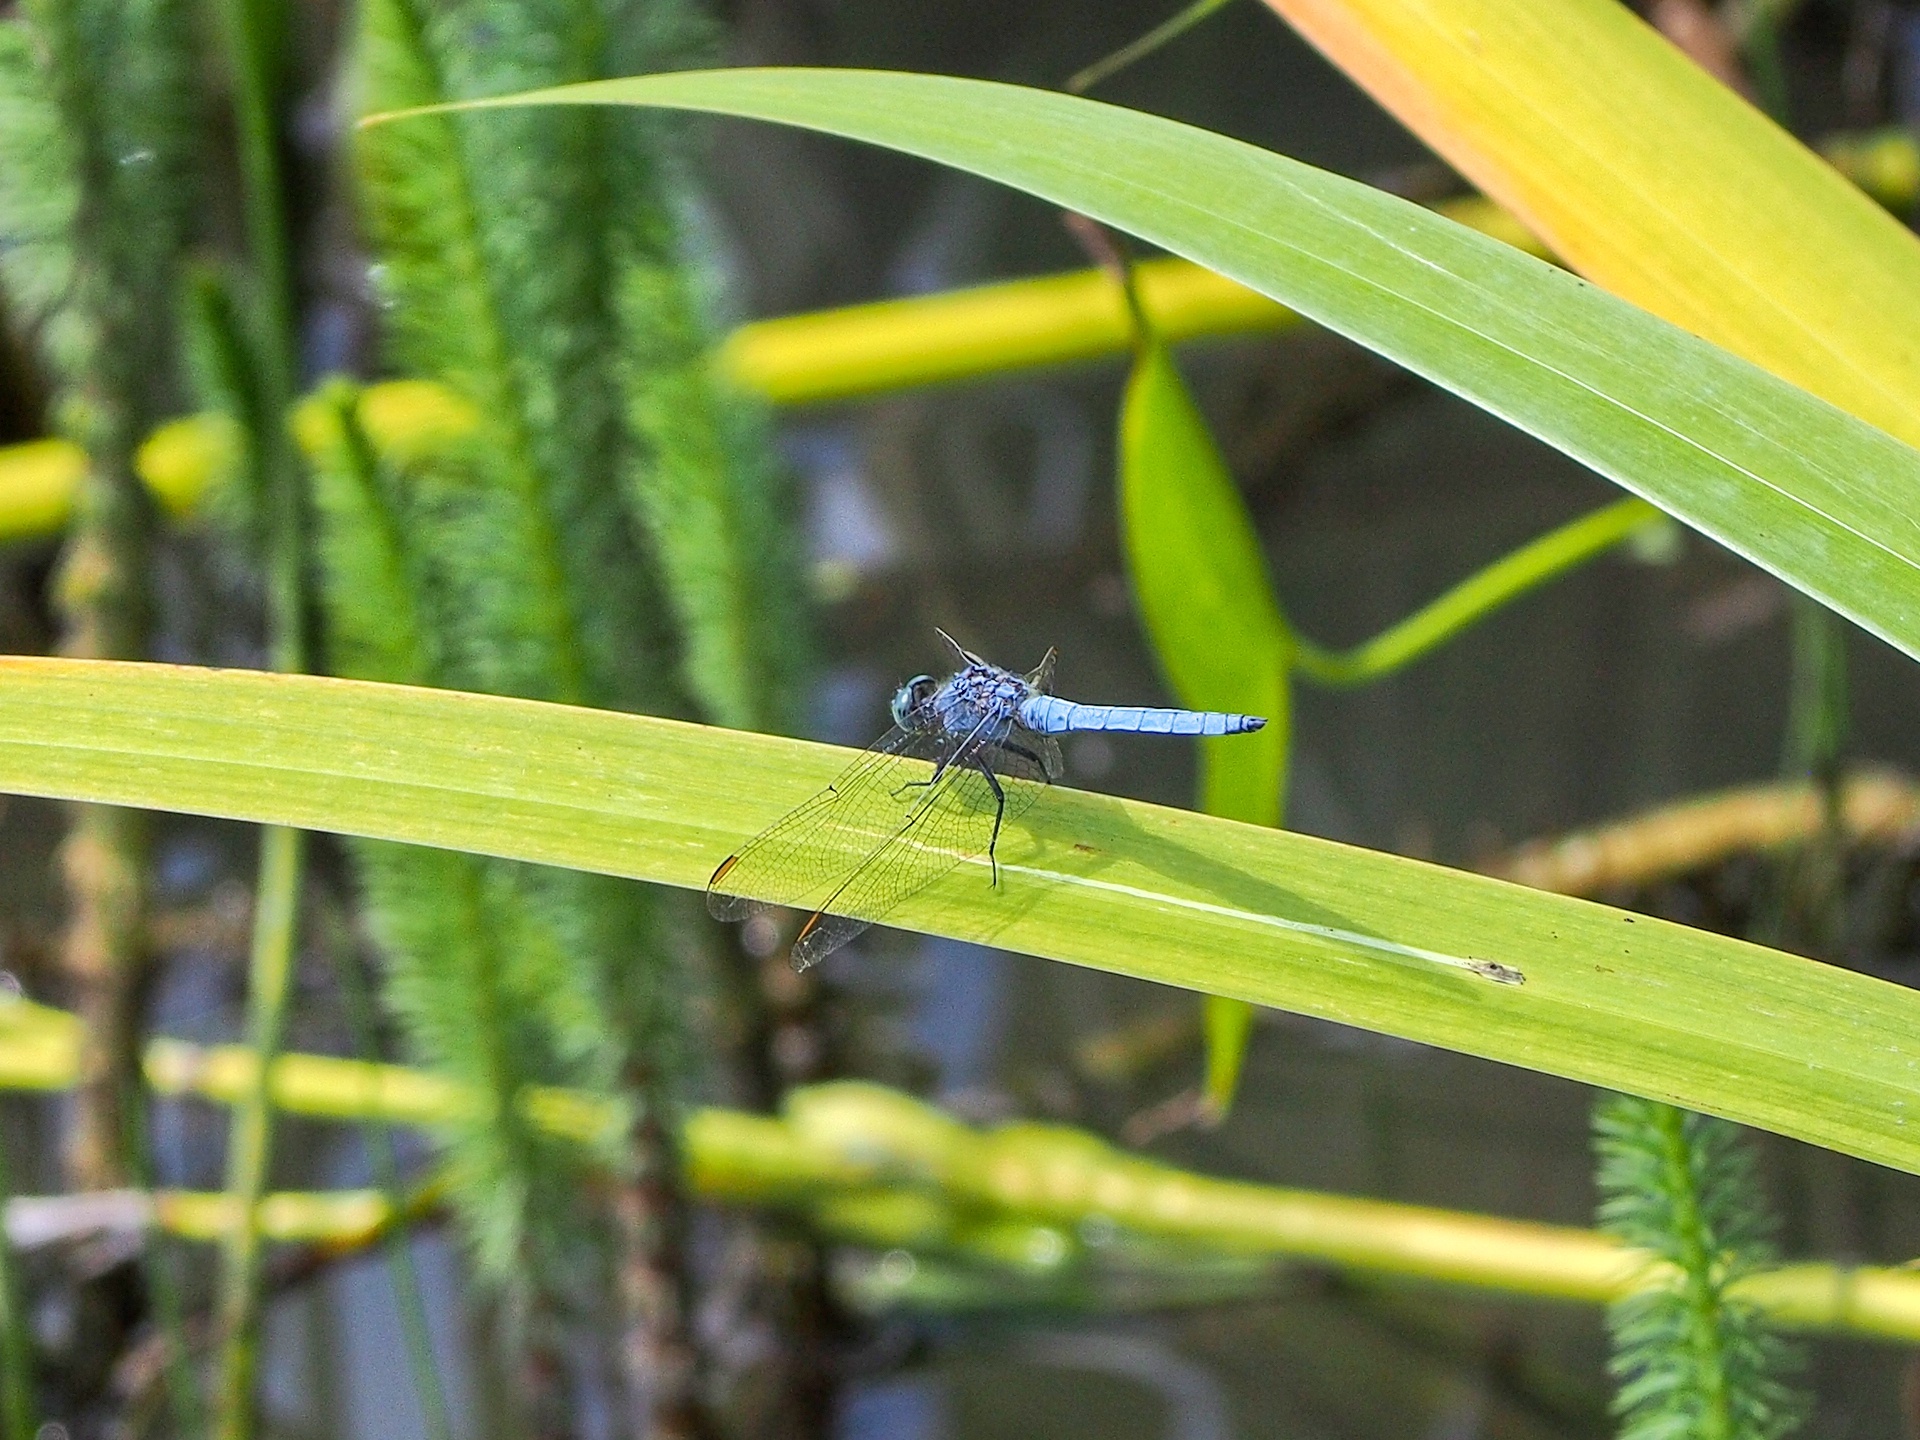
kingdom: Animalia
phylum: Arthropoda
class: Insecta
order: Odonata
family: Libellulidae
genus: Orthetrum
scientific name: Orthetrum coerulescens
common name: Keeled skimmer
